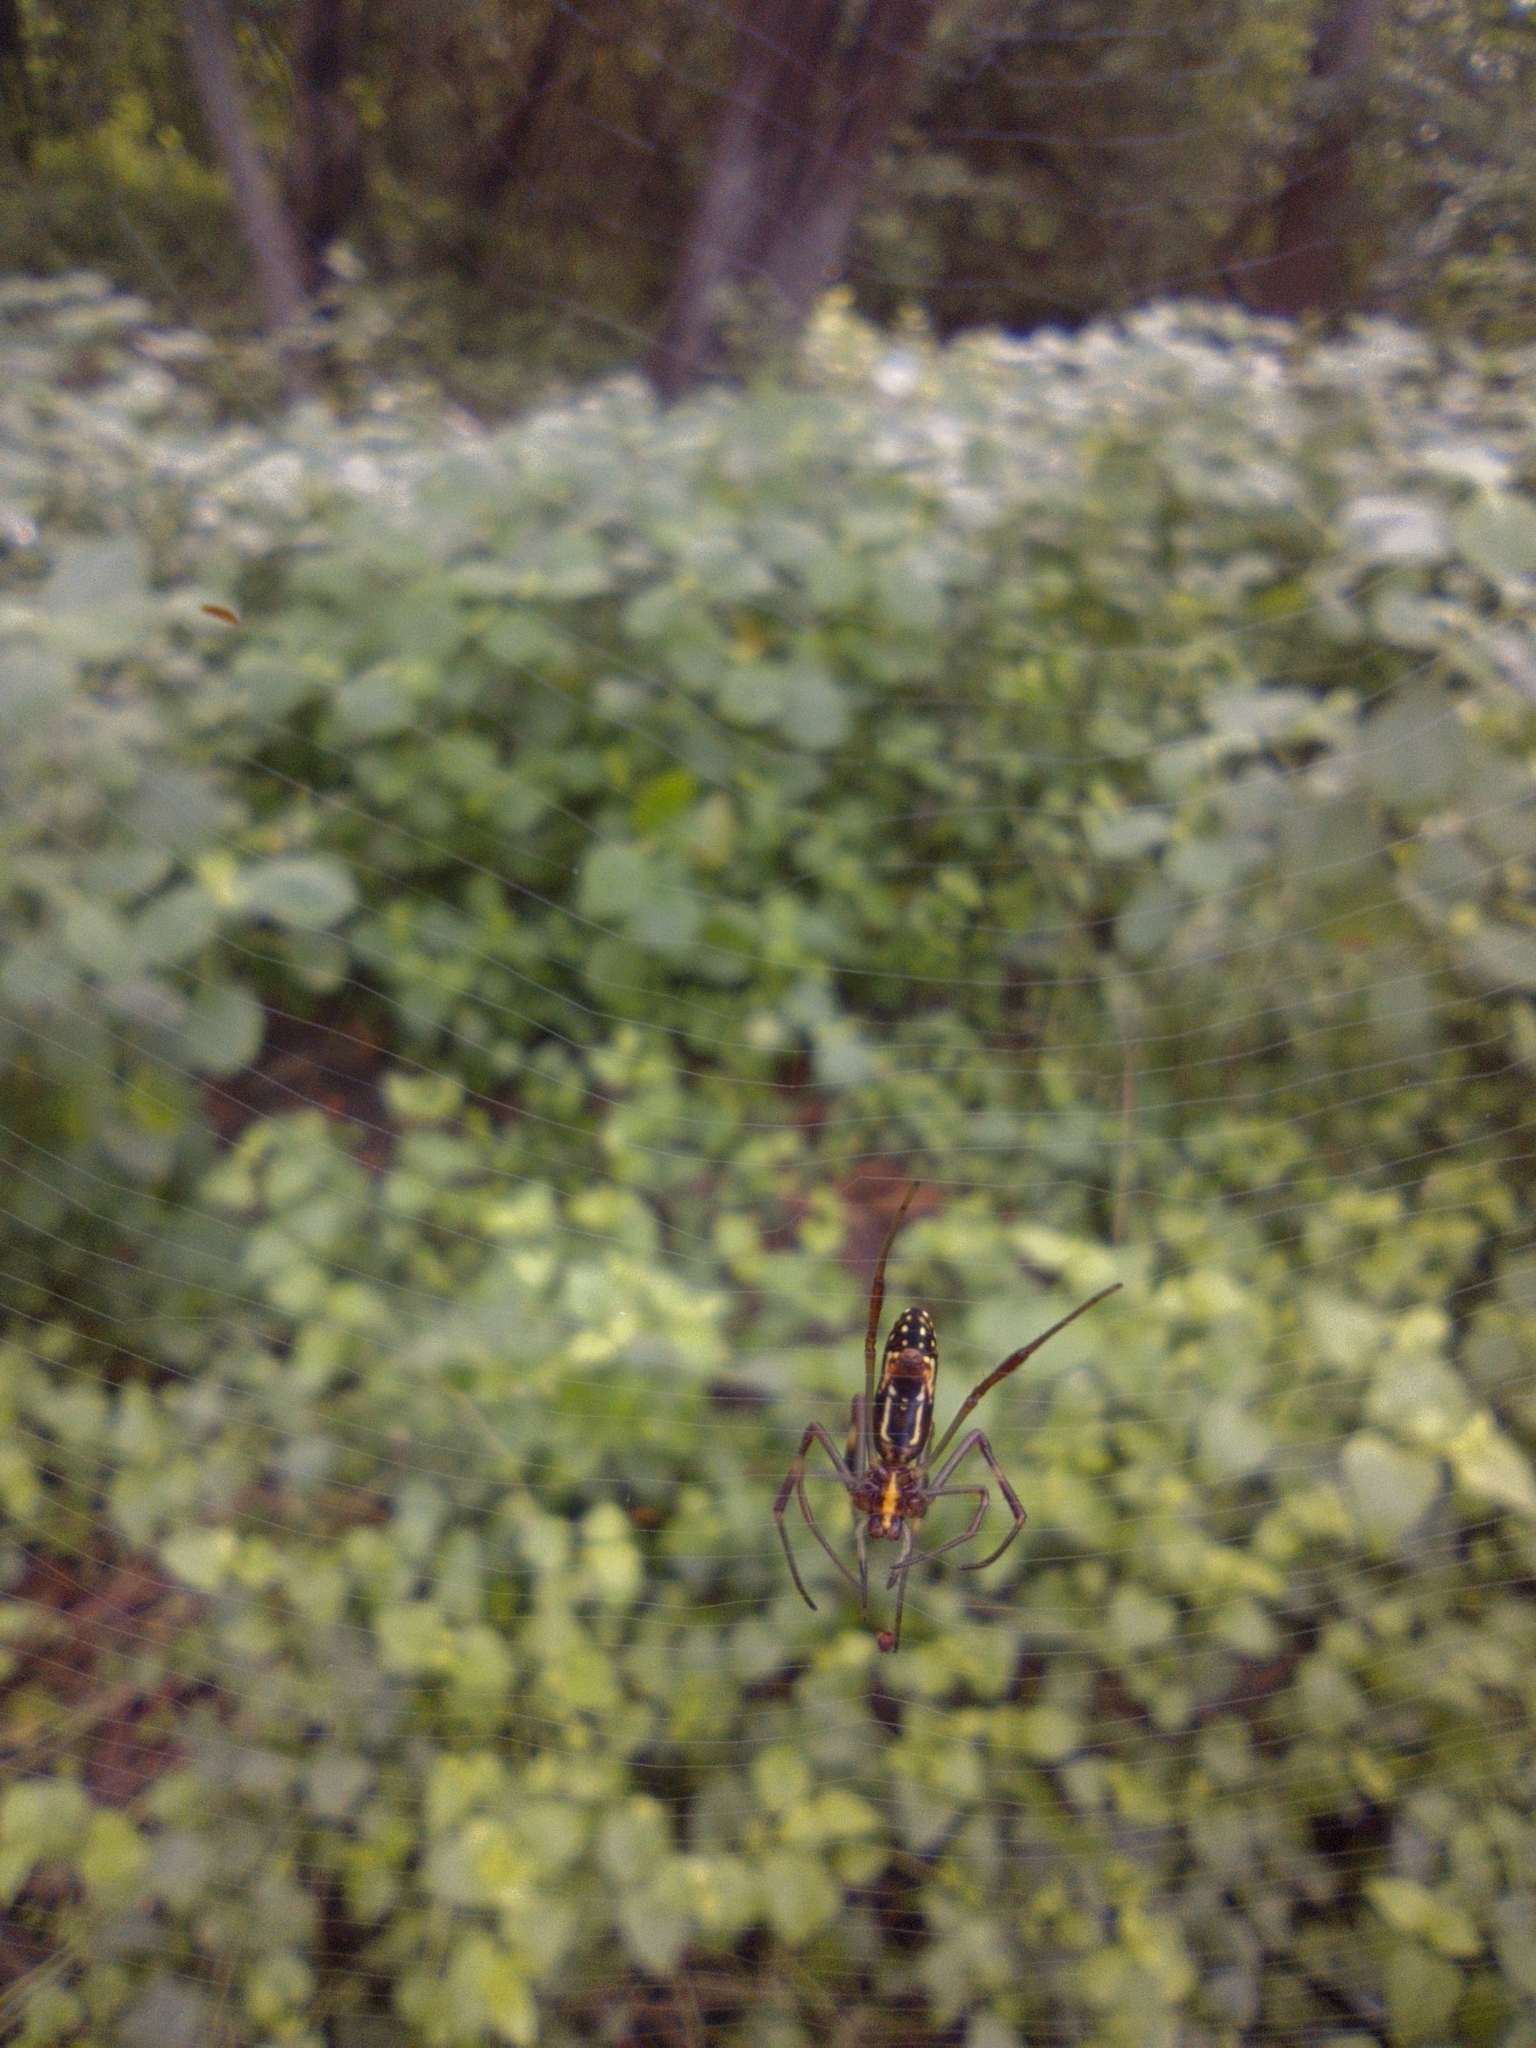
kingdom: Animalia
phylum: Arthropoda
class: Arachnida
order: Araneae
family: Araneidae
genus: Trichonephila
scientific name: Trichonephila clavipes
